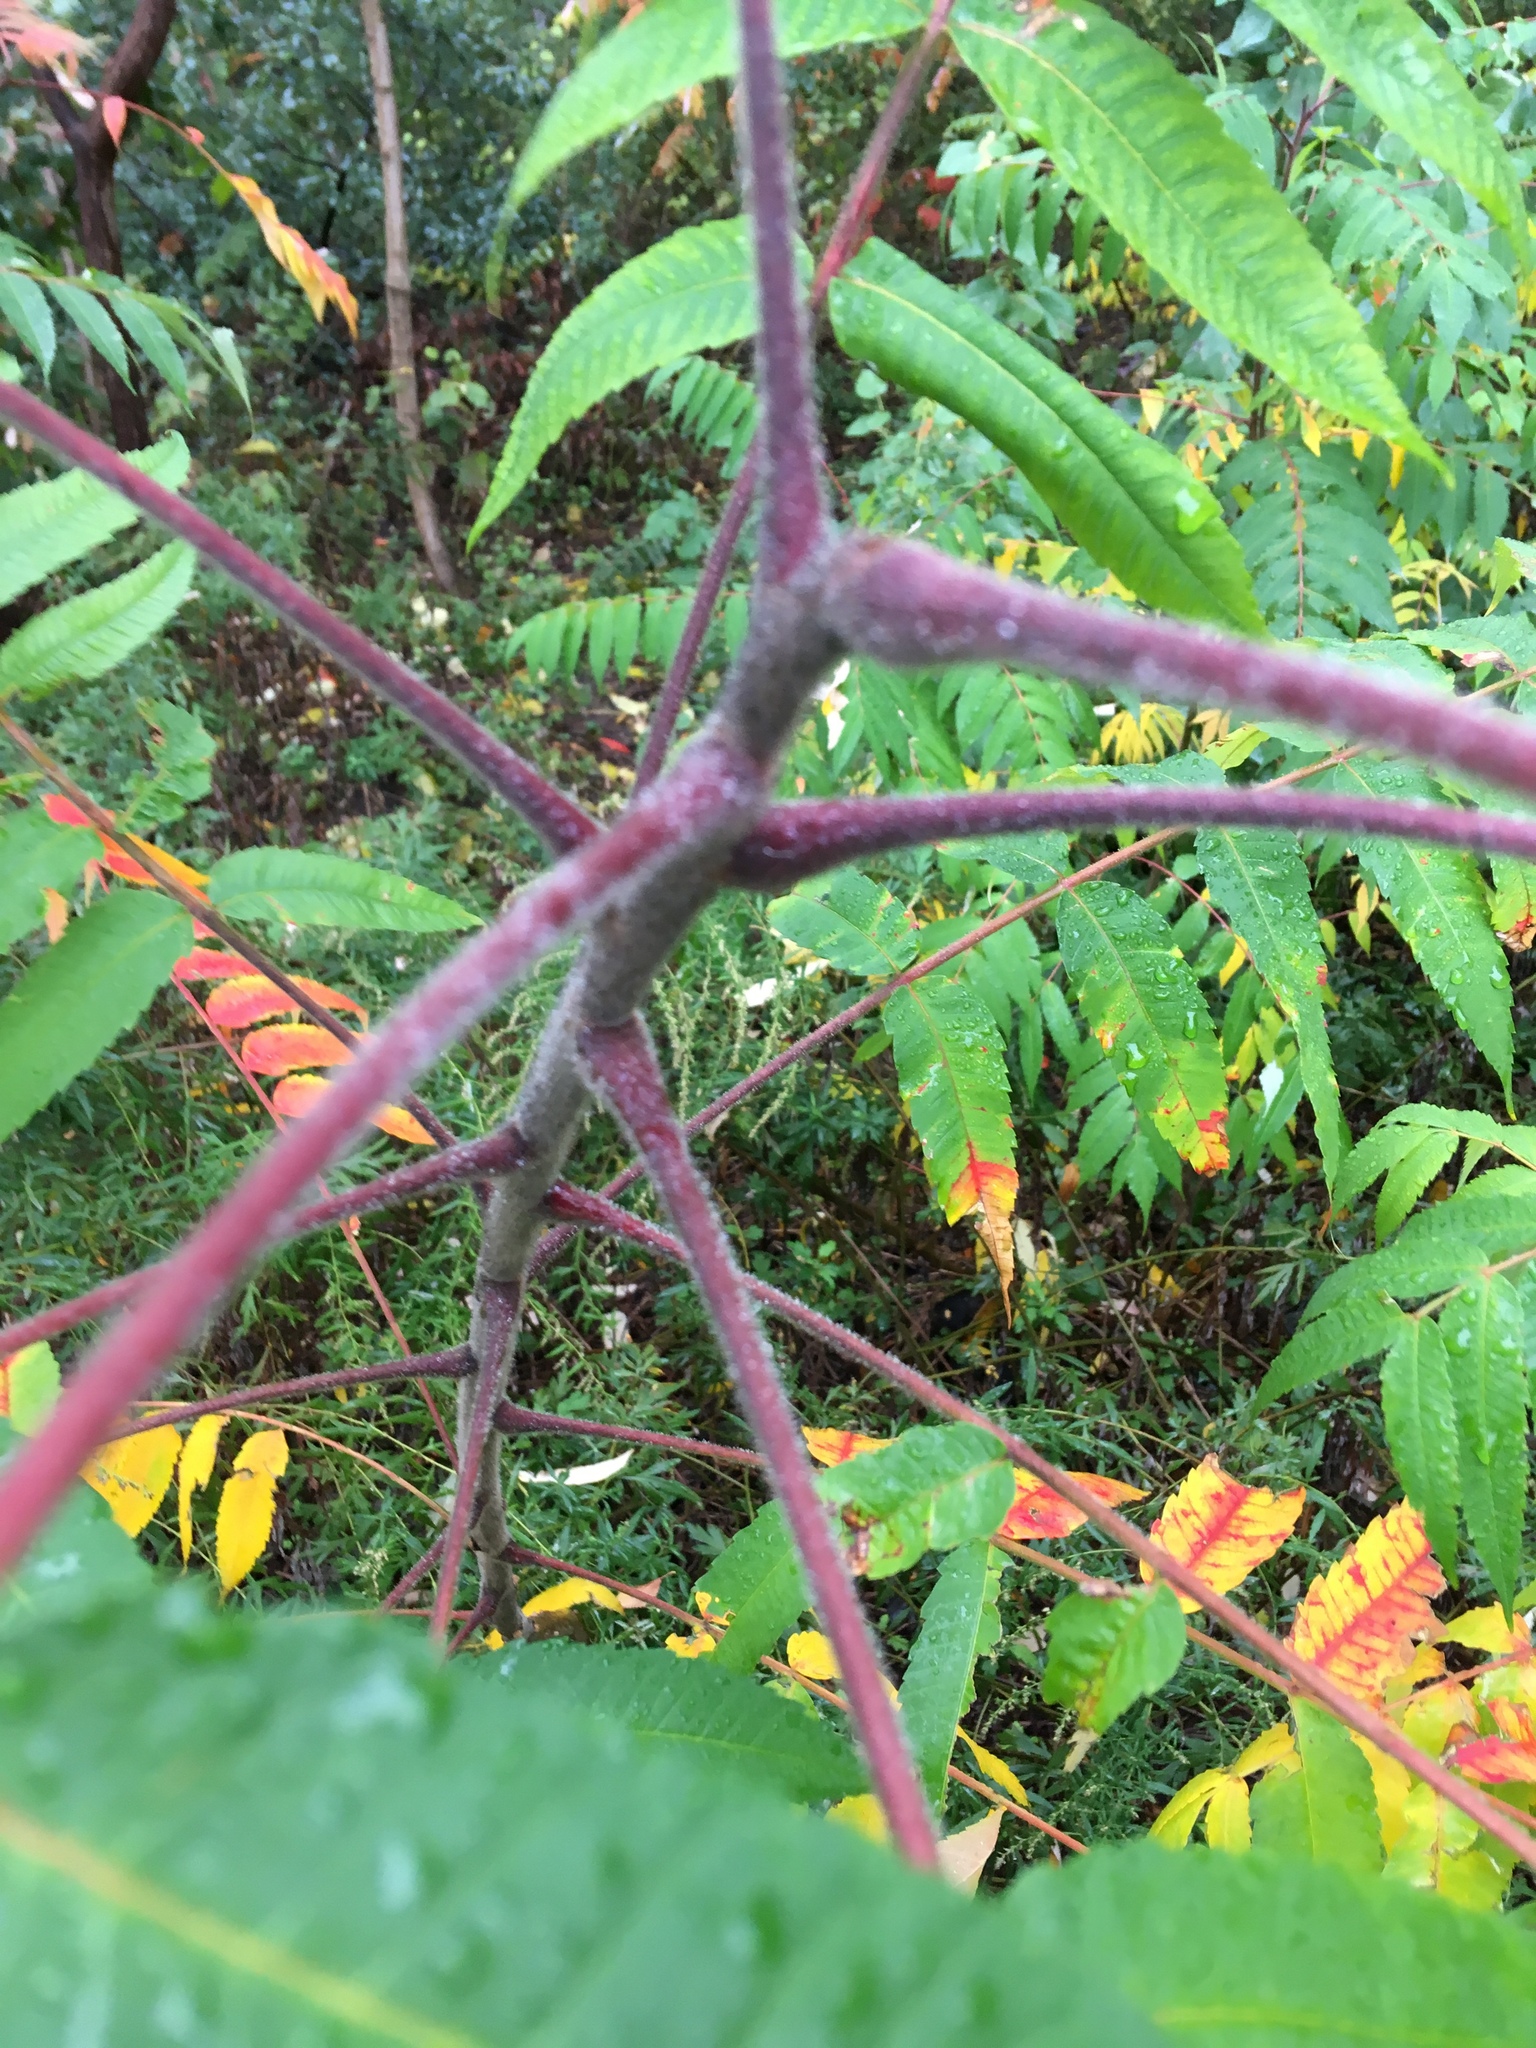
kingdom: Plantae
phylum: Tracheophyta
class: Magnoliopsida
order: Sapindales
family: Anacardiaceae
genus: Rhus
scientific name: Rhus typhina
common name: Staghorn sumac
